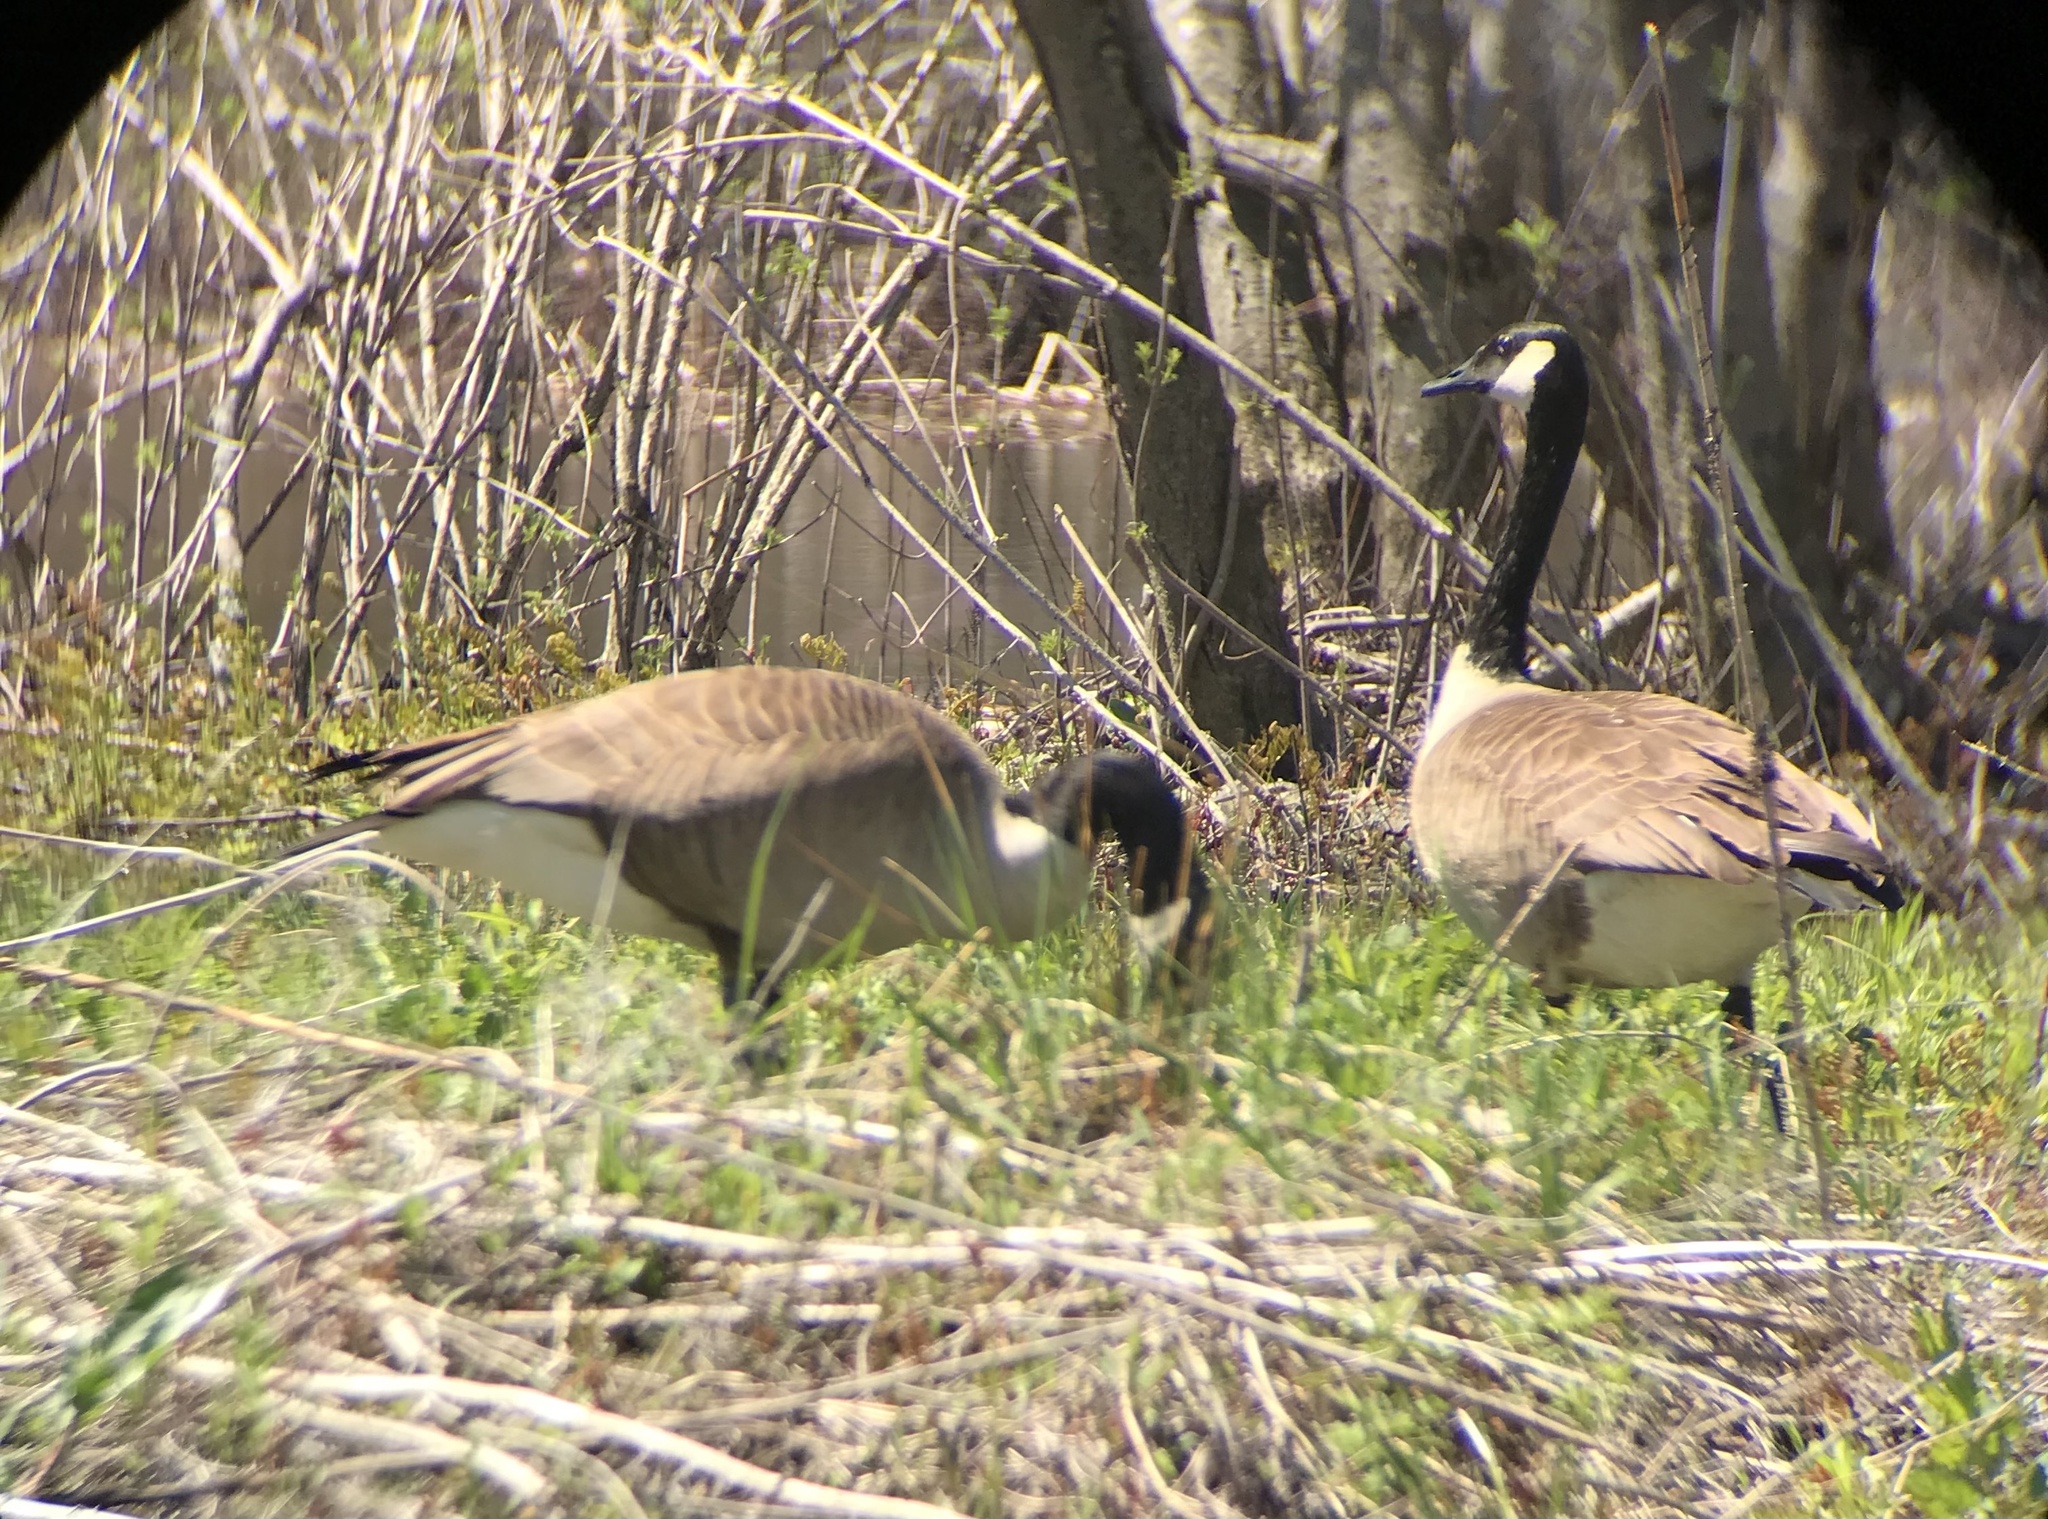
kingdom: Animalia
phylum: Chordata
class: Aves
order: Anseriformes
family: Anatidae
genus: Branta
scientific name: Branta canadensis
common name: Canada goose
